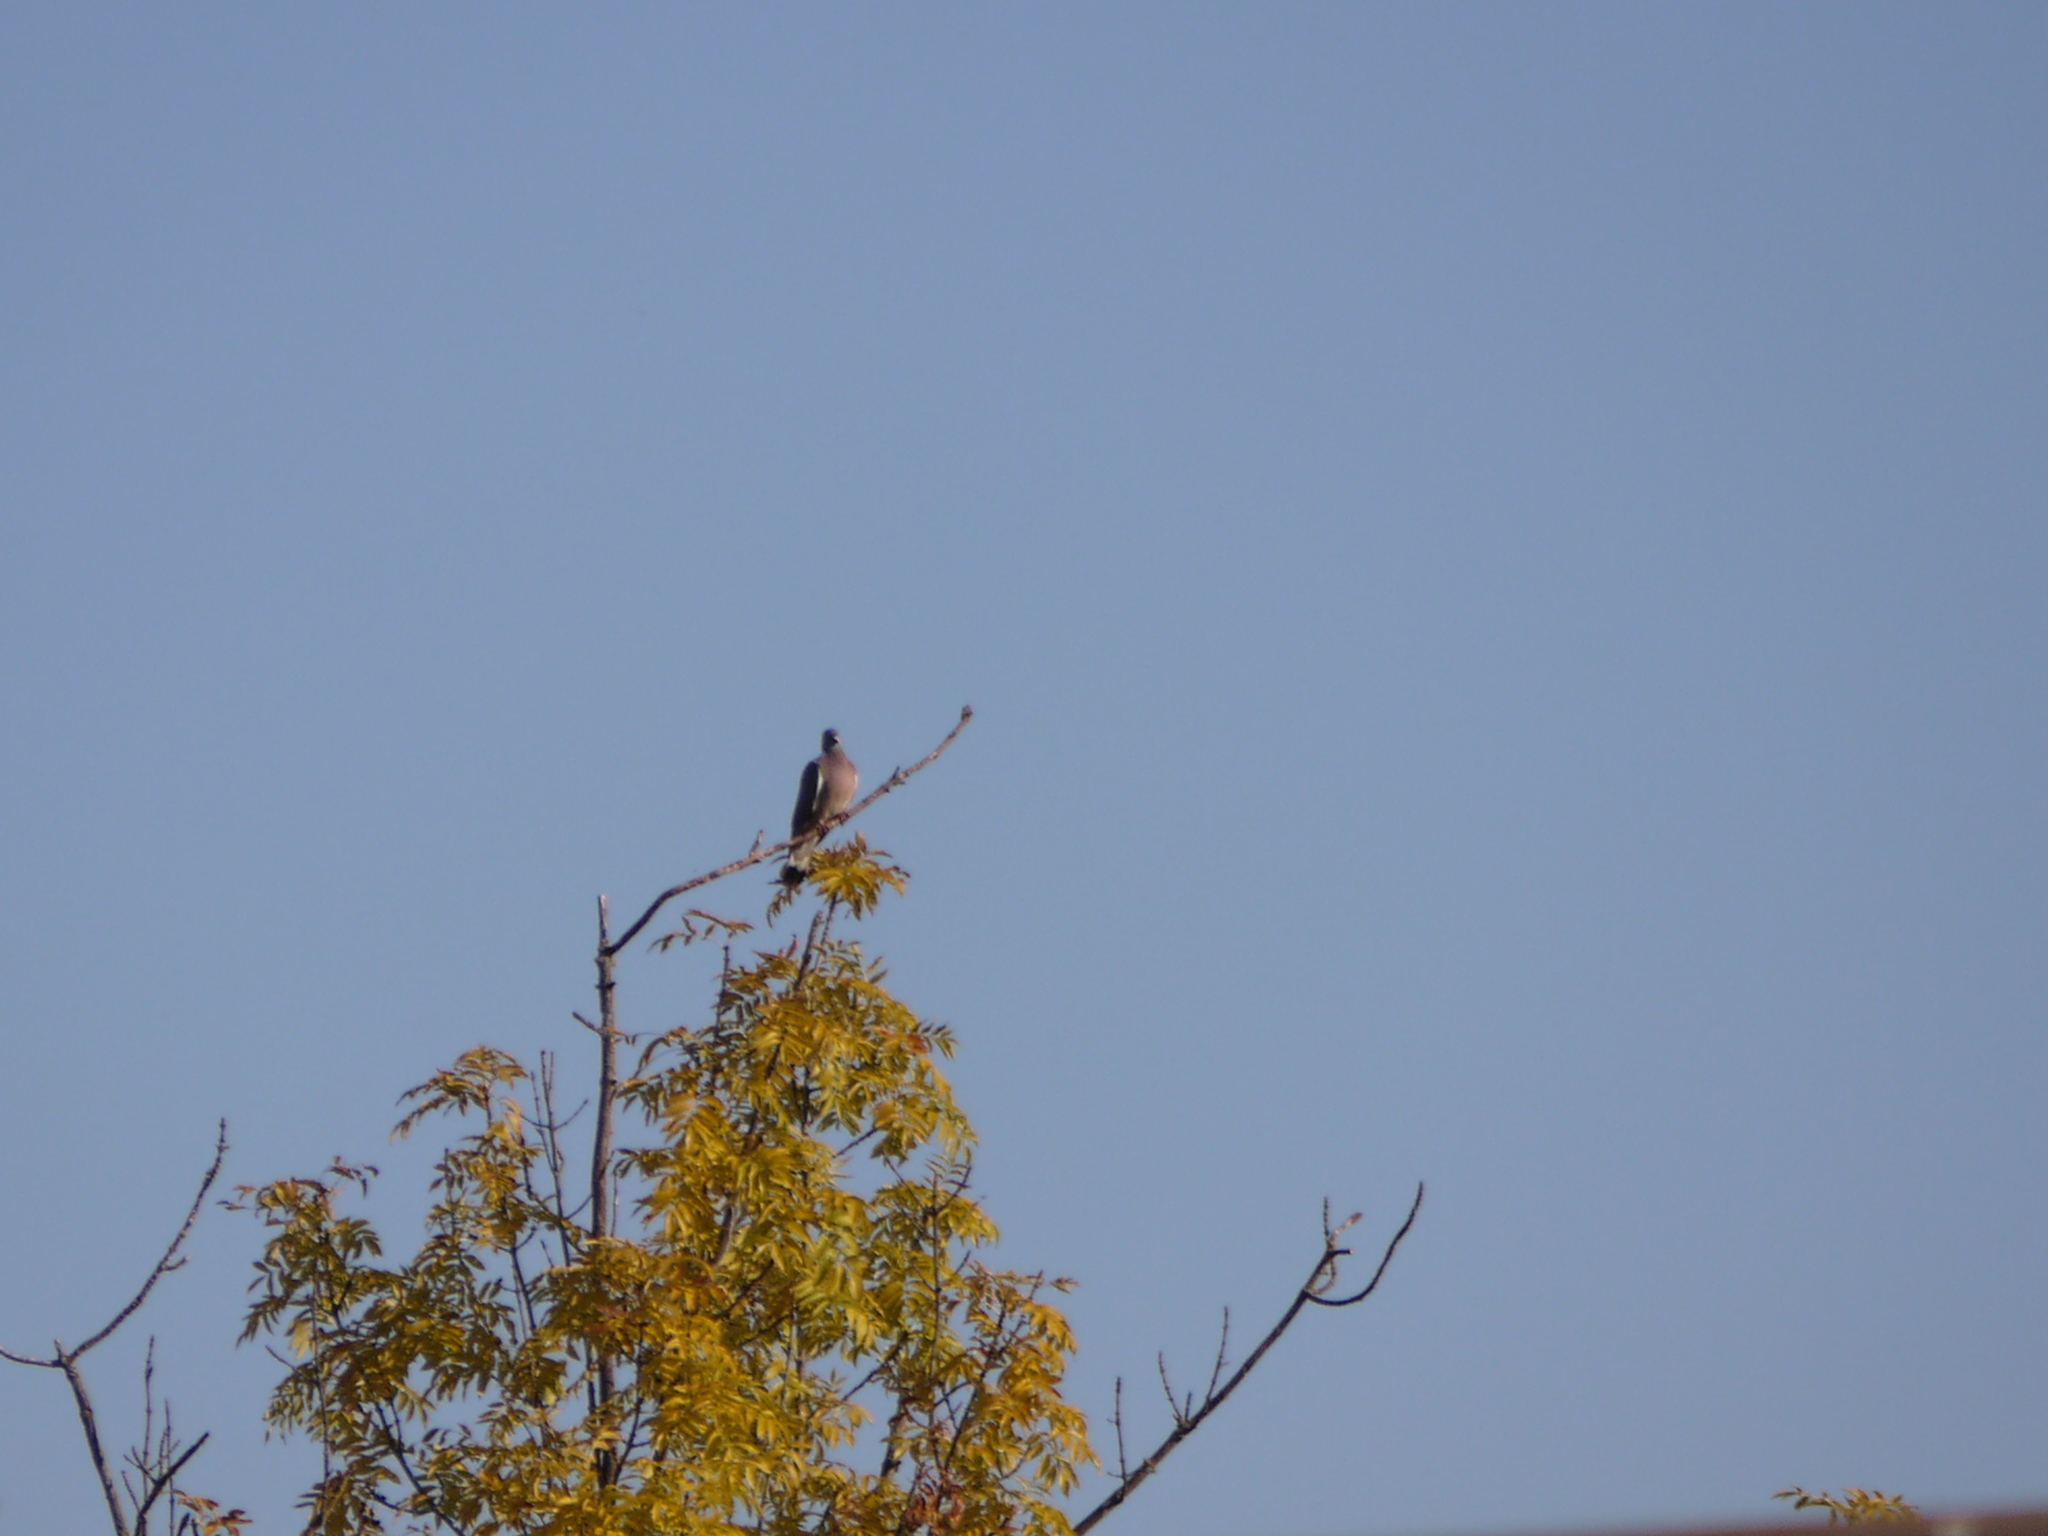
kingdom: Animalia
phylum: Chordata
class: Aves
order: Columbiformes
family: Columbidae
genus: Columba
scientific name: Columba palumbus
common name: Common wood pigeon
